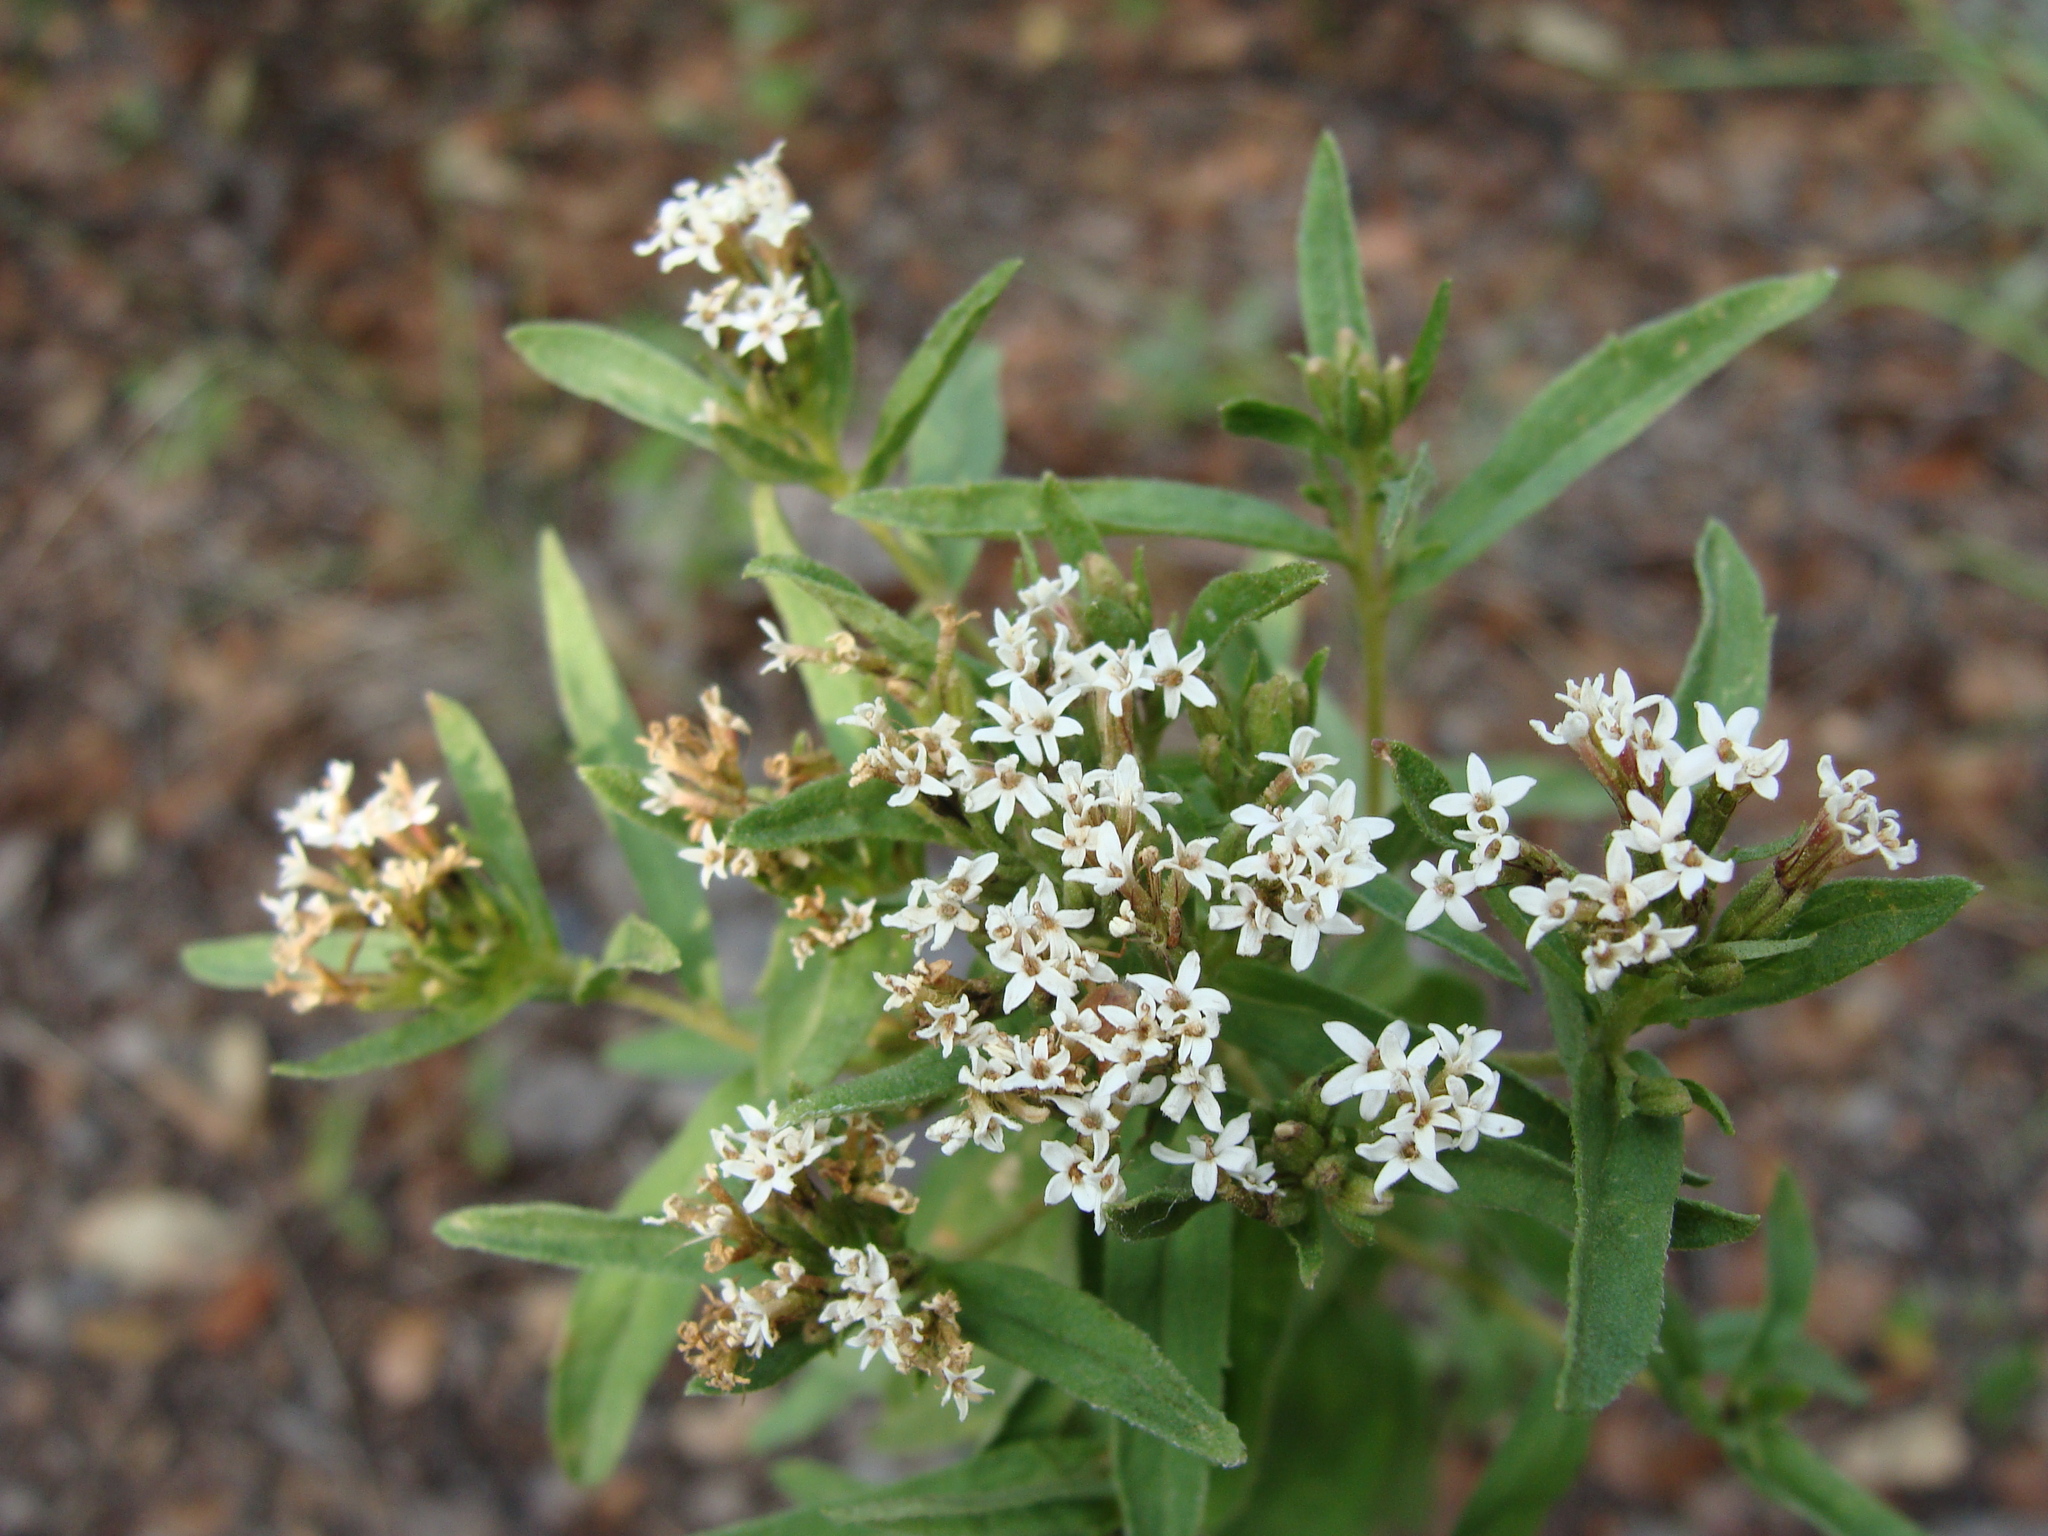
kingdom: Plantae
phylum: Tracheophyta
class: Magnoliopsida
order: Asterales
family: Asteraceae
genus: Stevia
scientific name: Stevia lemmonii
